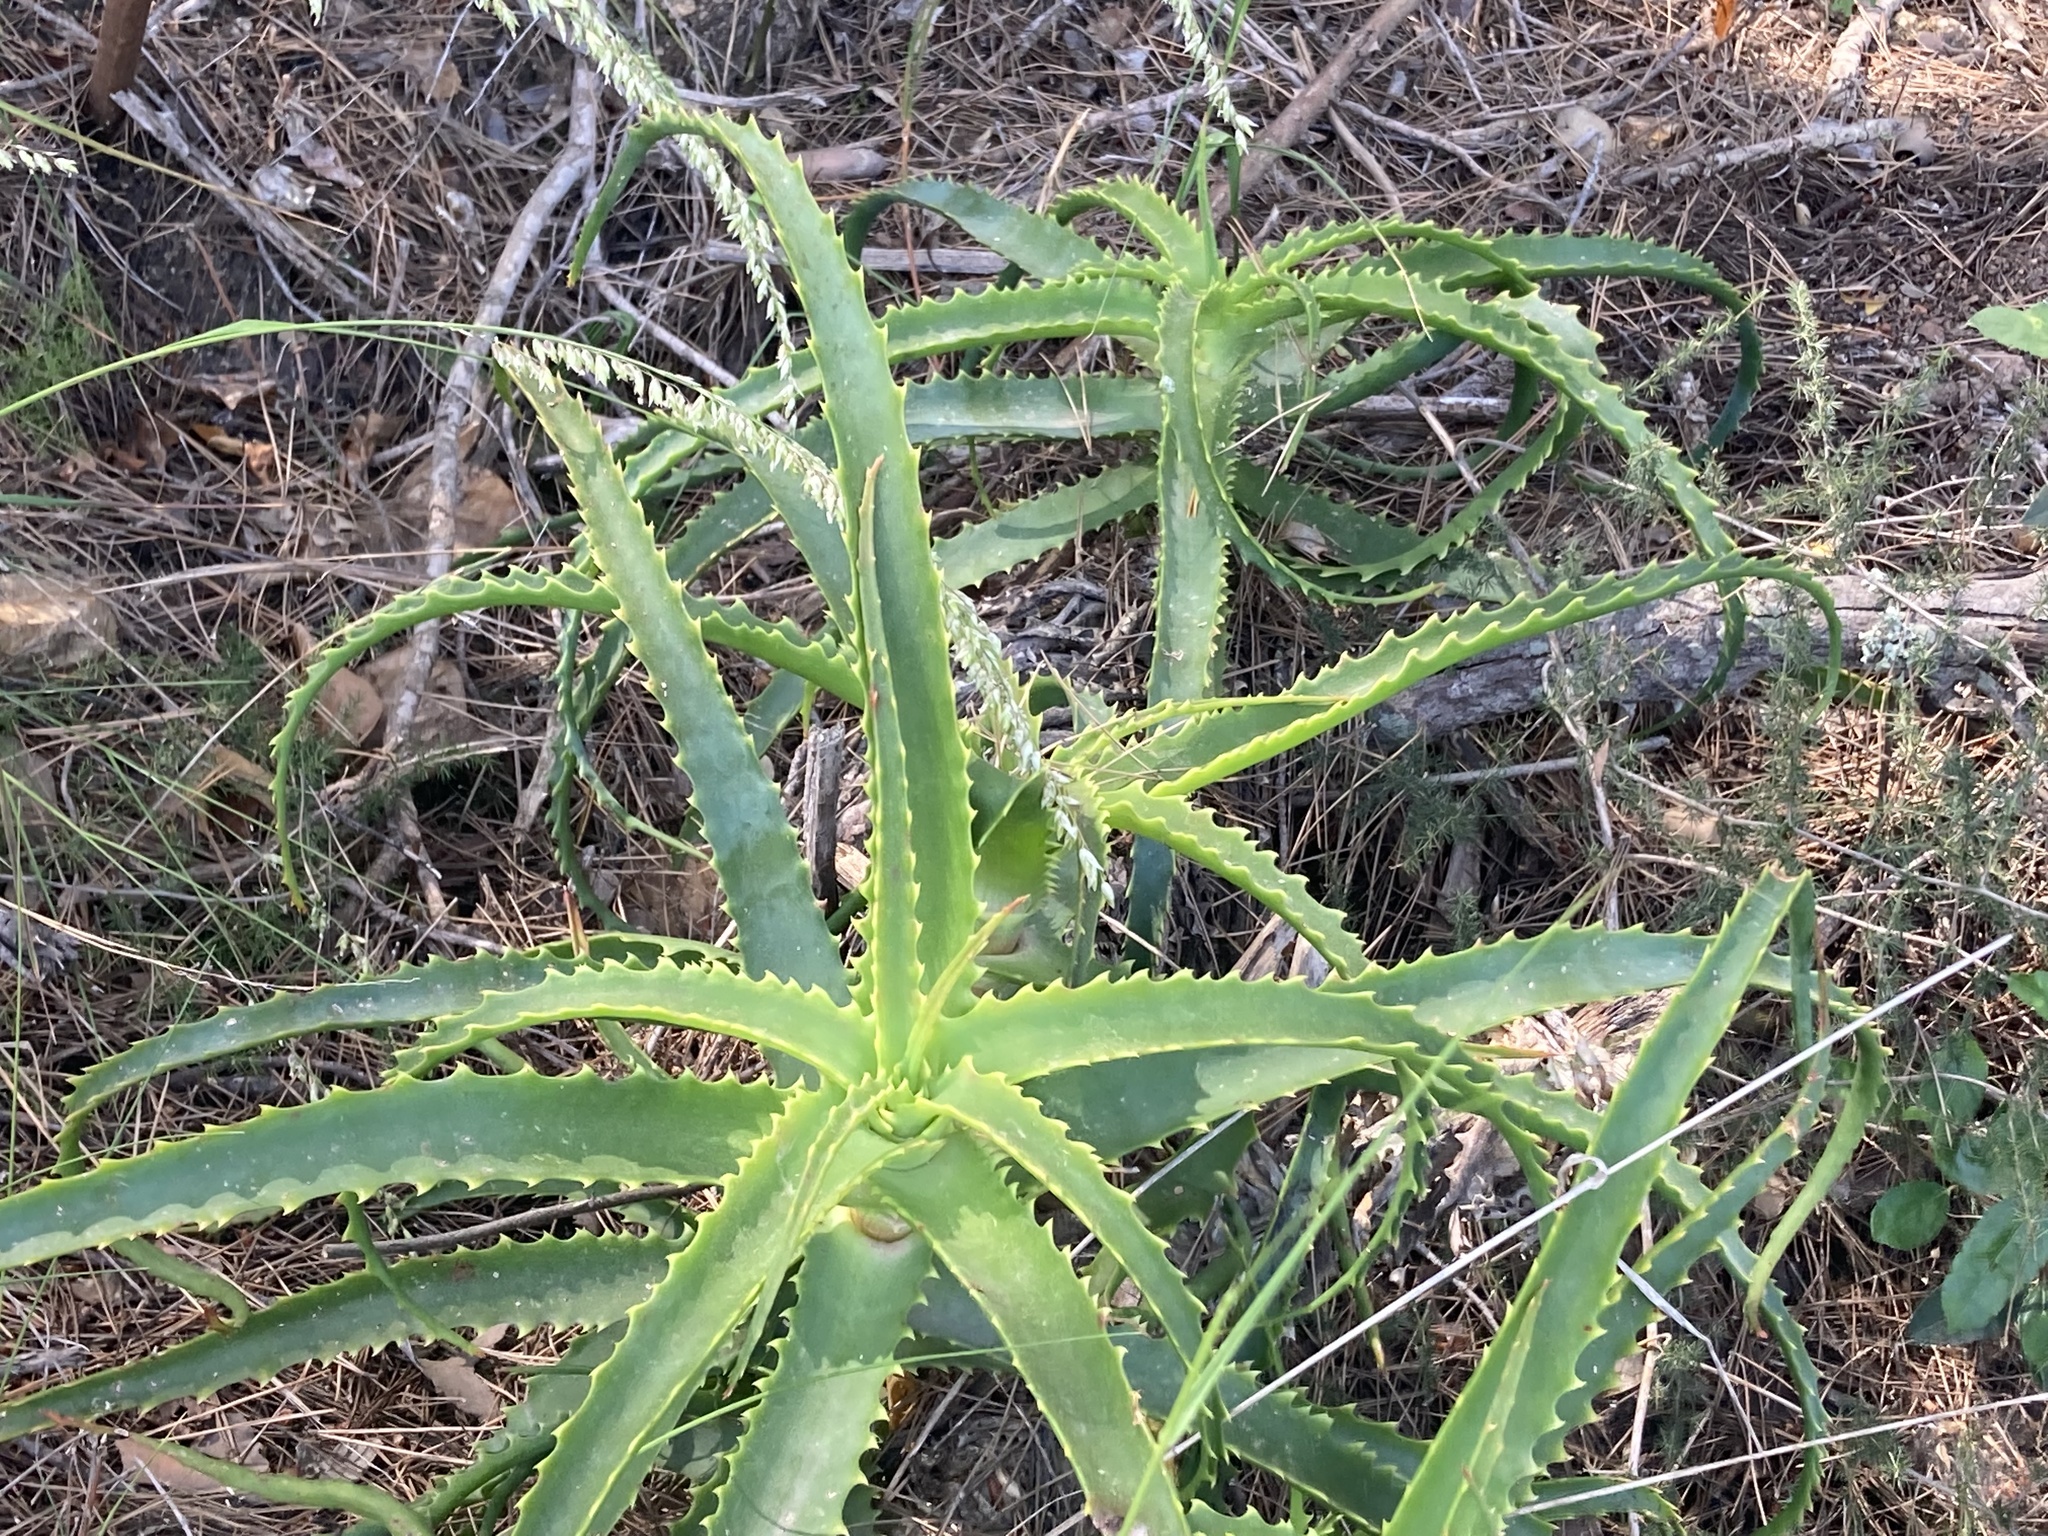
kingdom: Plantae
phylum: Tracheophyta
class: Liliopsida
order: Asparagales
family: Asphodelaceae
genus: Aloe
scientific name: Aloe arborescens
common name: Candelabra aloe
